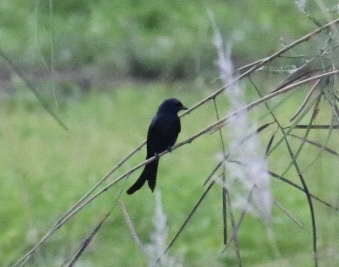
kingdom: Animalia
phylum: Chordata
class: Aves
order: Passeriformes
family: Dicruridae
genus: Dicrurus
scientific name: Dicrurus macrocercus
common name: Black drongo
